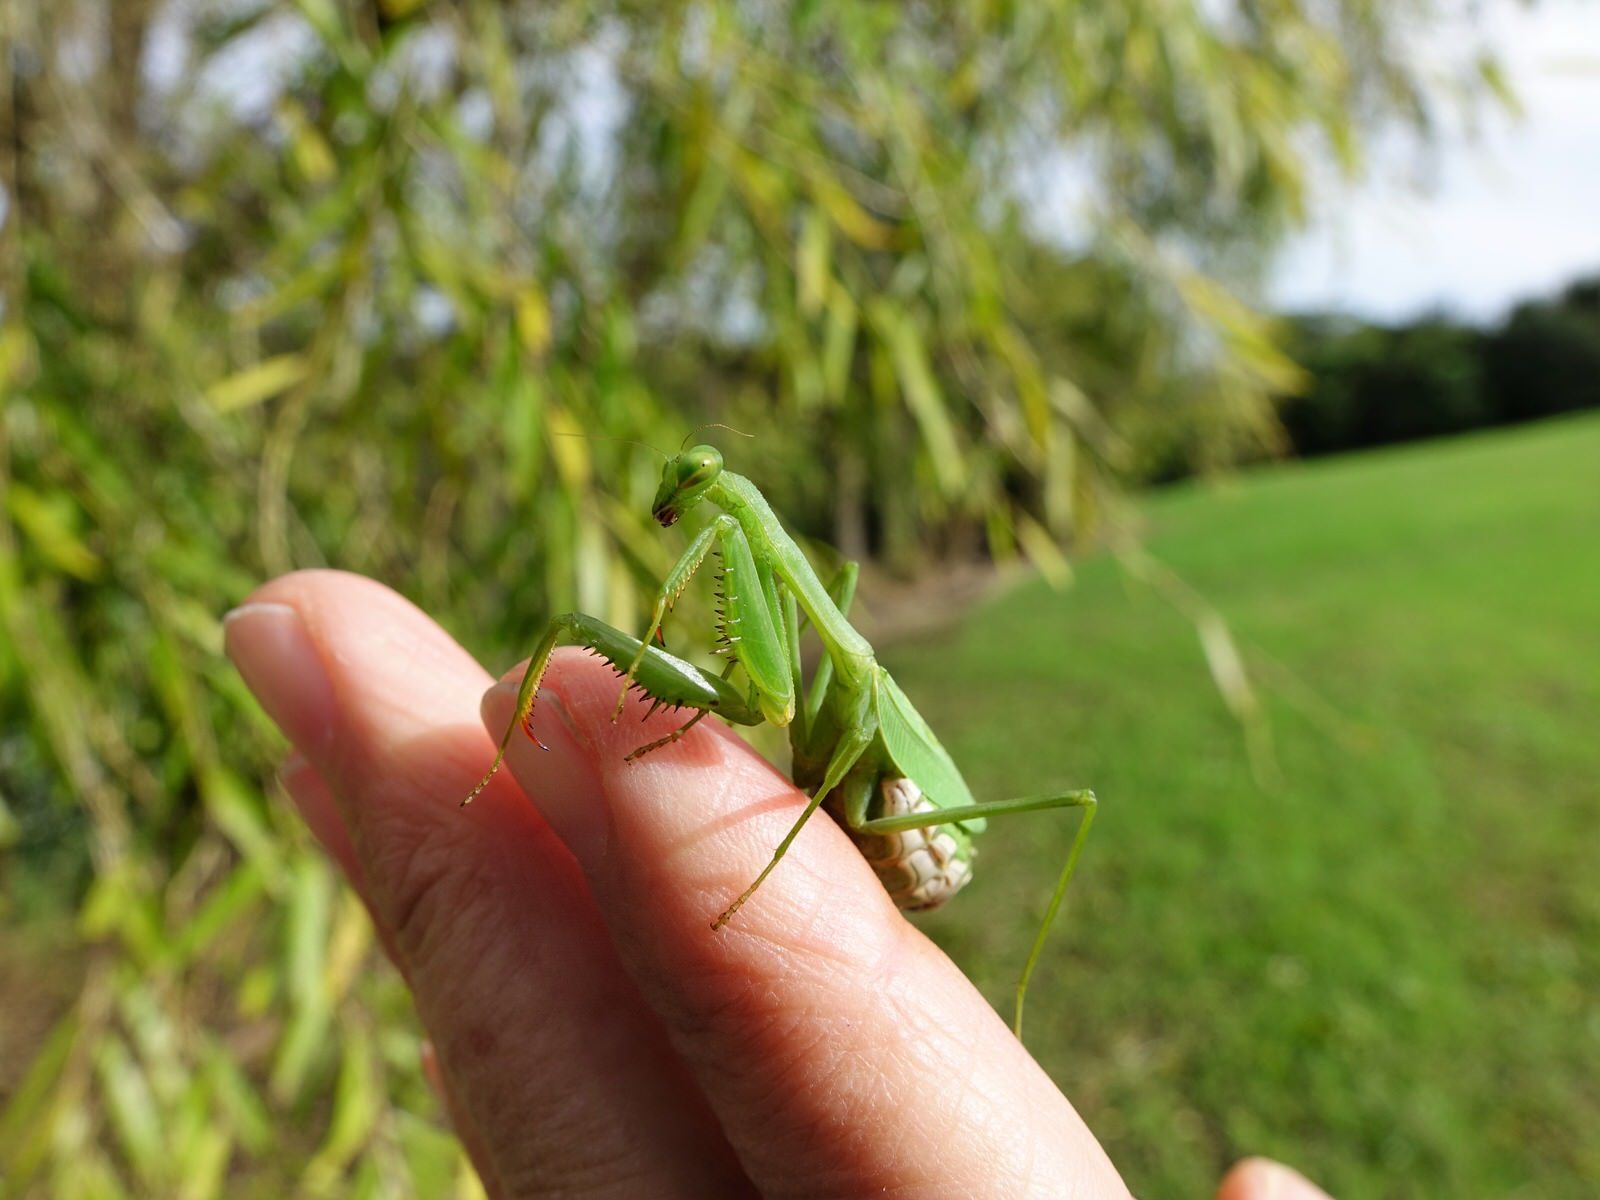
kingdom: Animalia
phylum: Arthropoda
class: Insecta
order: Mantodea
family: Miomantidae
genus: Miomantis
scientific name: Miomantis caffra
